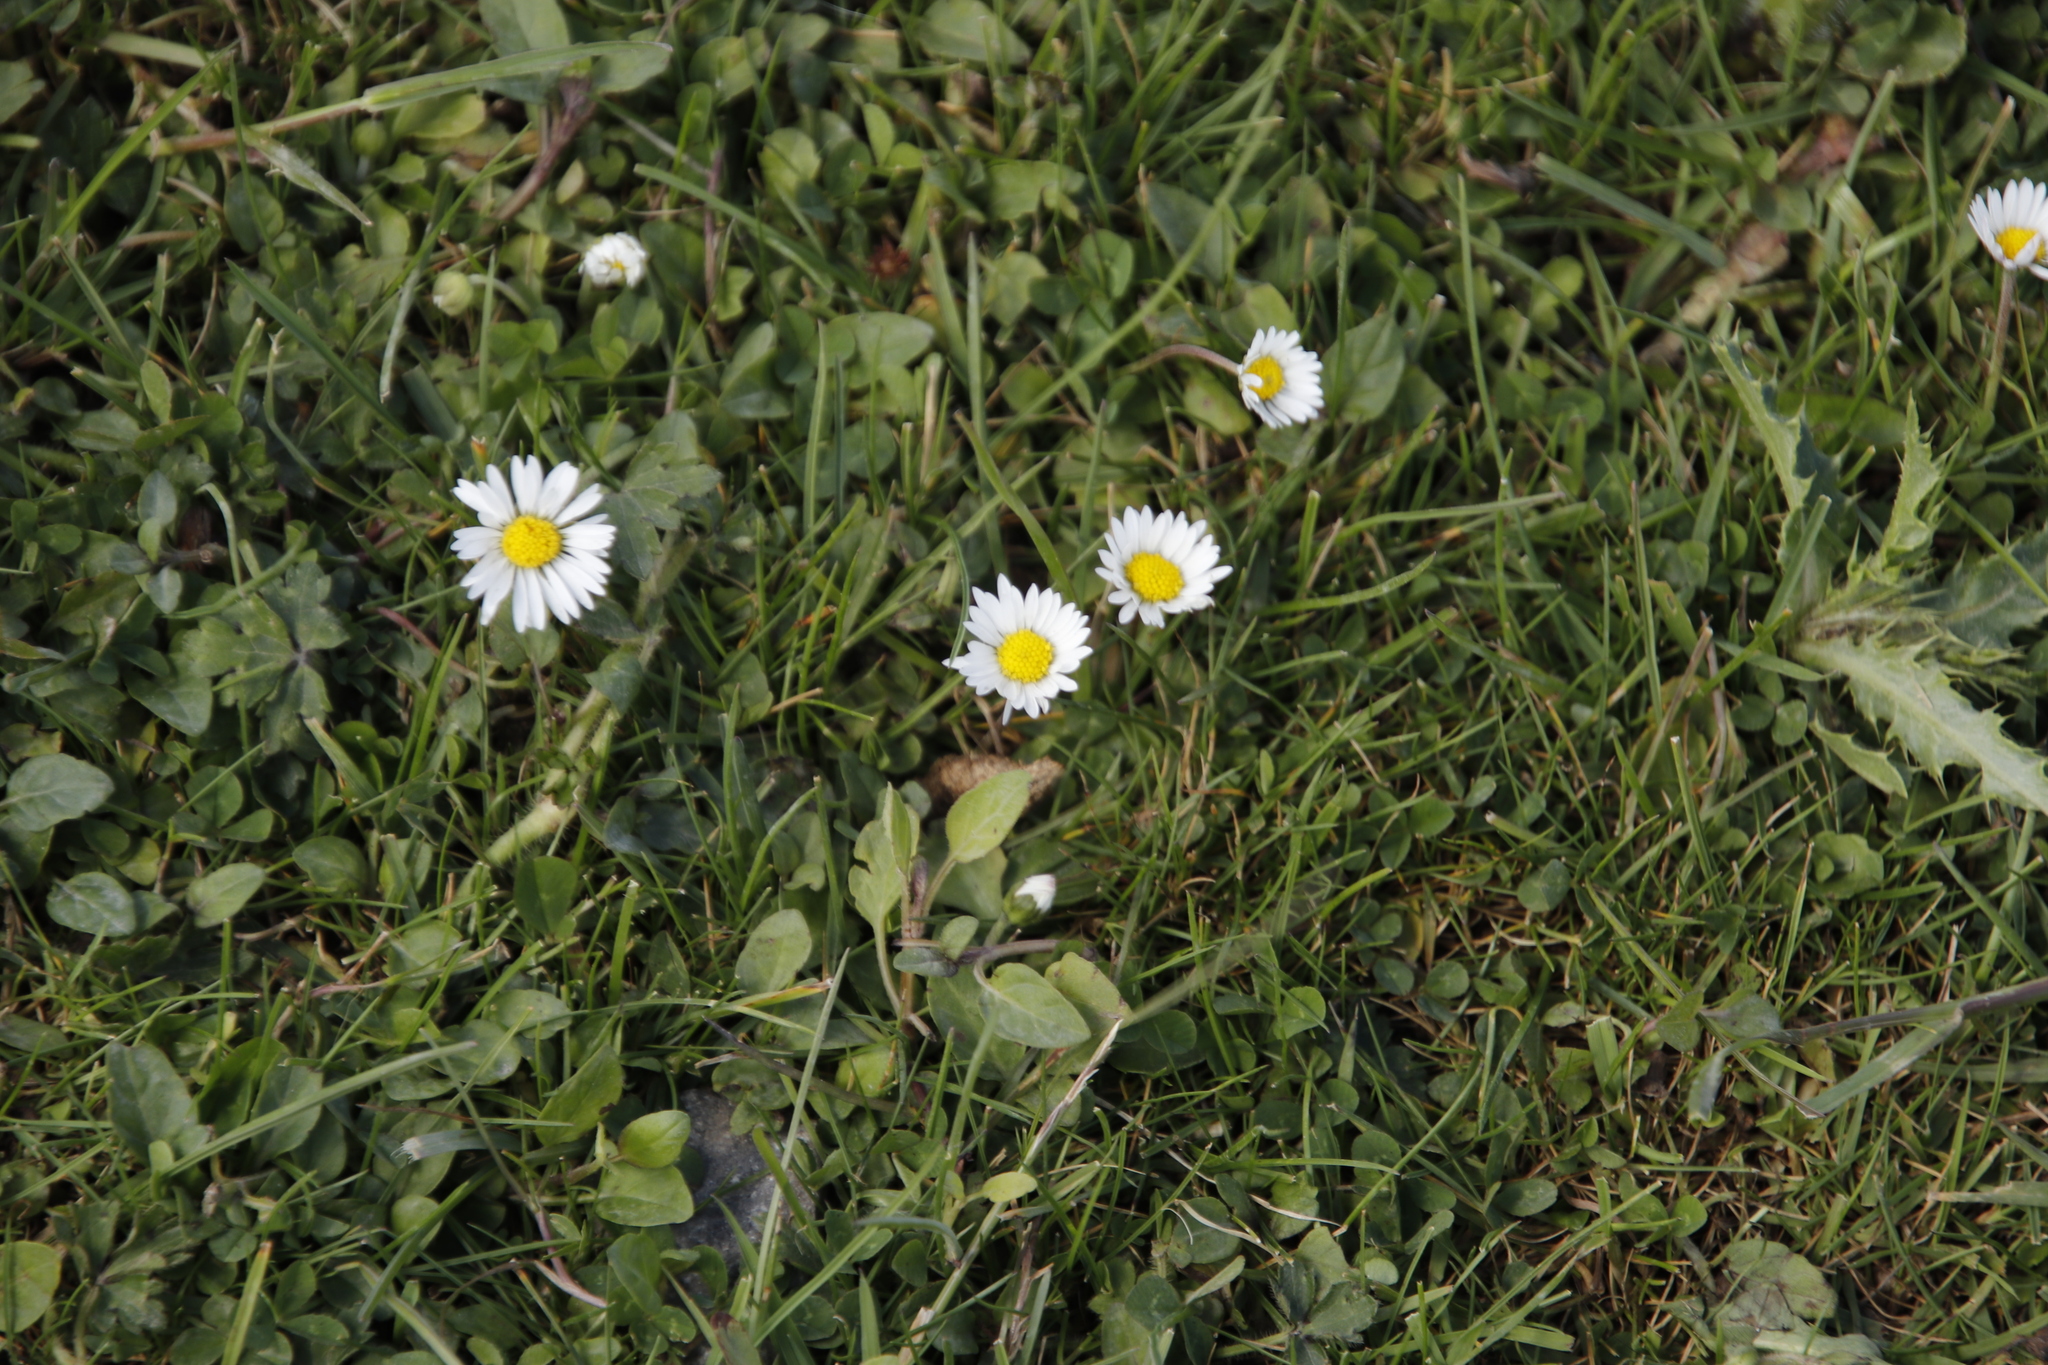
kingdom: Plantae
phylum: Tracheophyta
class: Magnoliopsida
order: Asterales
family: Asteraceae
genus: Bellis
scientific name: Bellis perennis
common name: Lawndaisy
